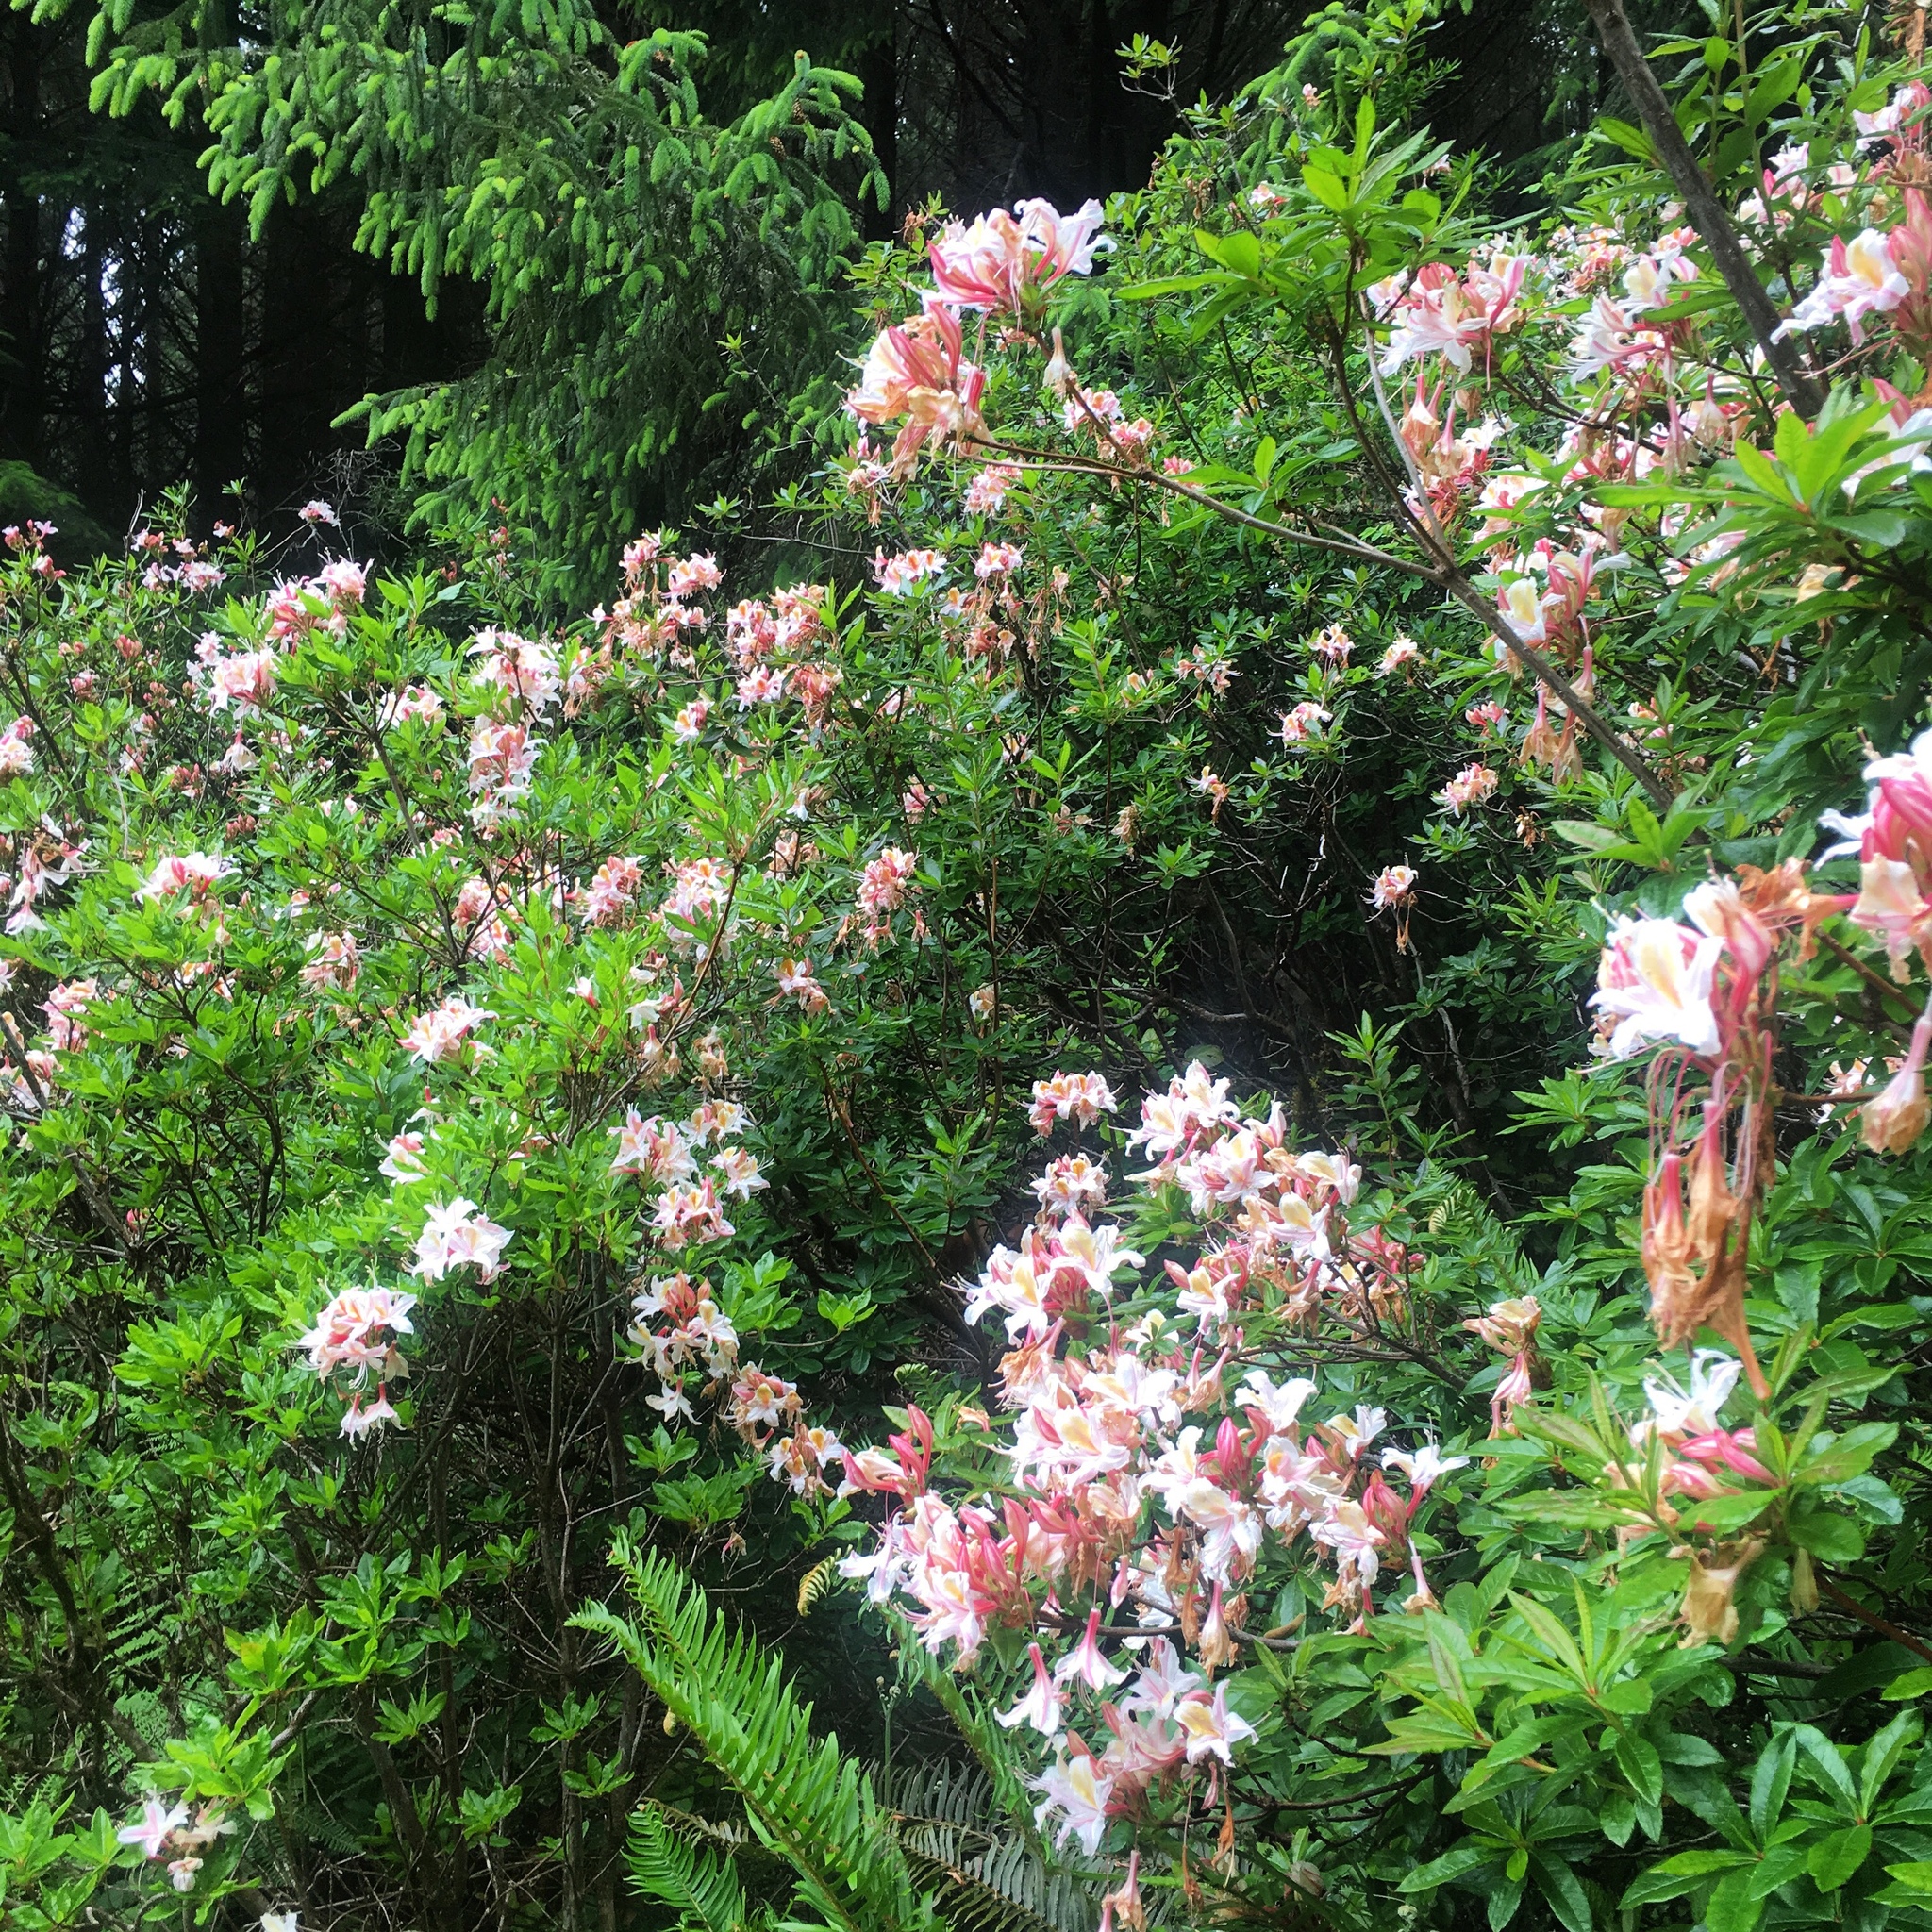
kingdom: Plantae
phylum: Tracheophyta
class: Magnoliopsida
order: Ericales
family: Ericaceae
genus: Rhododendron
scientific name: Rhododendron occidentale
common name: Western azalea
